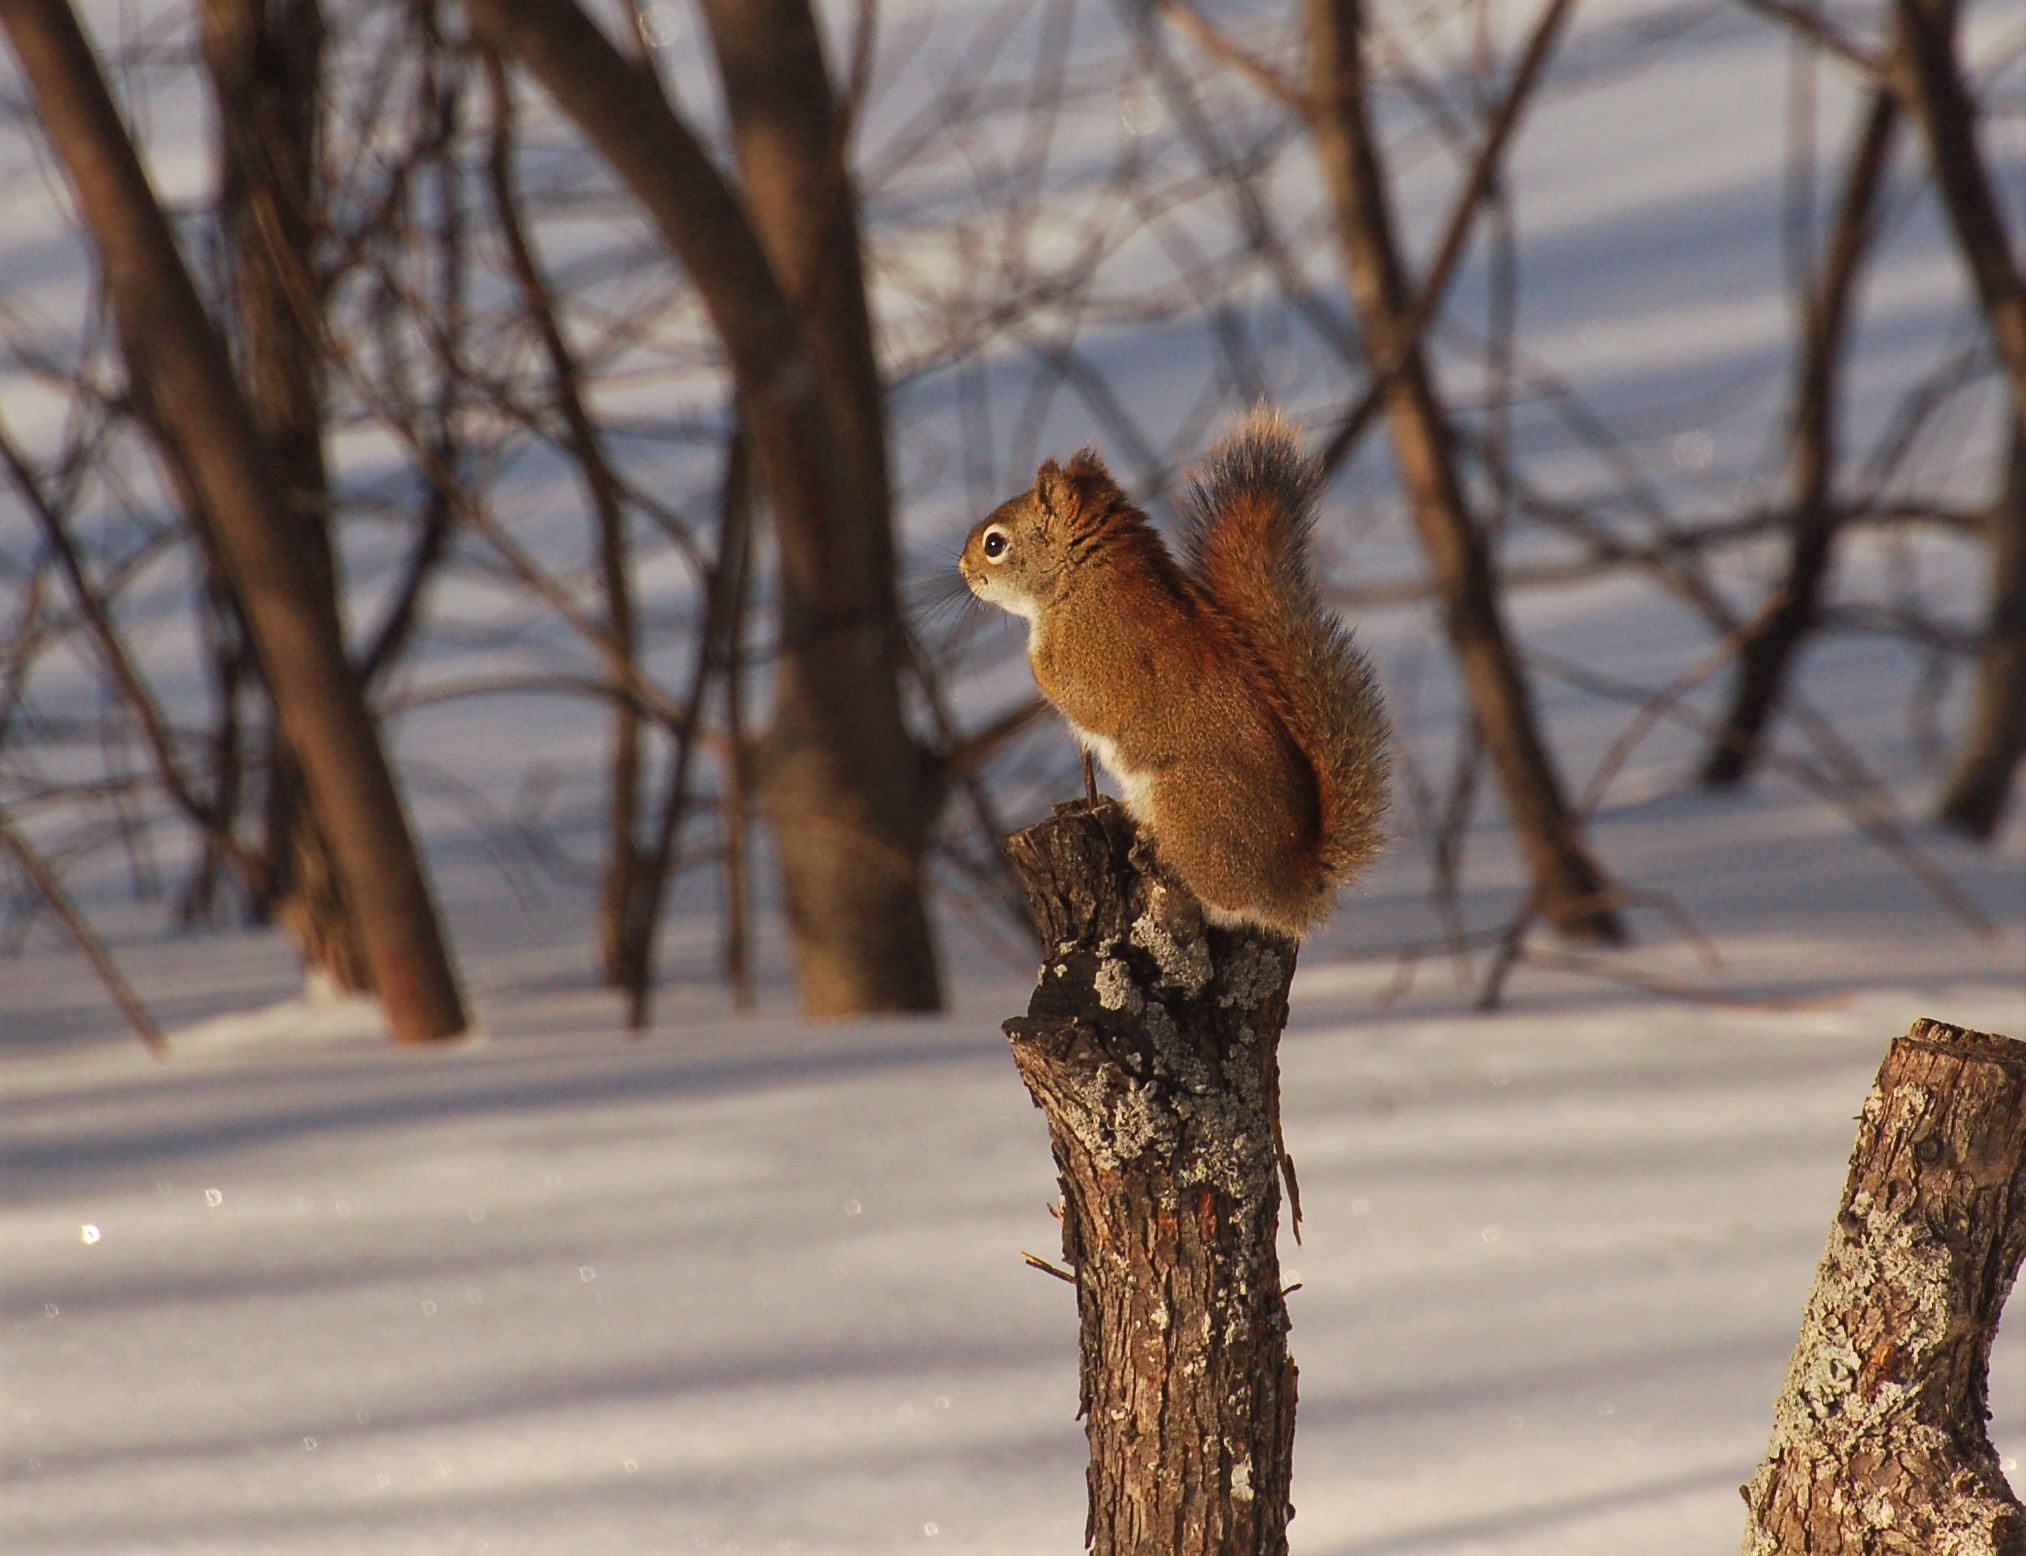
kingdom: Animalia
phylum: Chordata
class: Mammalia
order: Rodentia
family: Sciuridae
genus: Tamiasciurus
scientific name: Tamiasciurus hudsonicus
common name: Red squirrel
